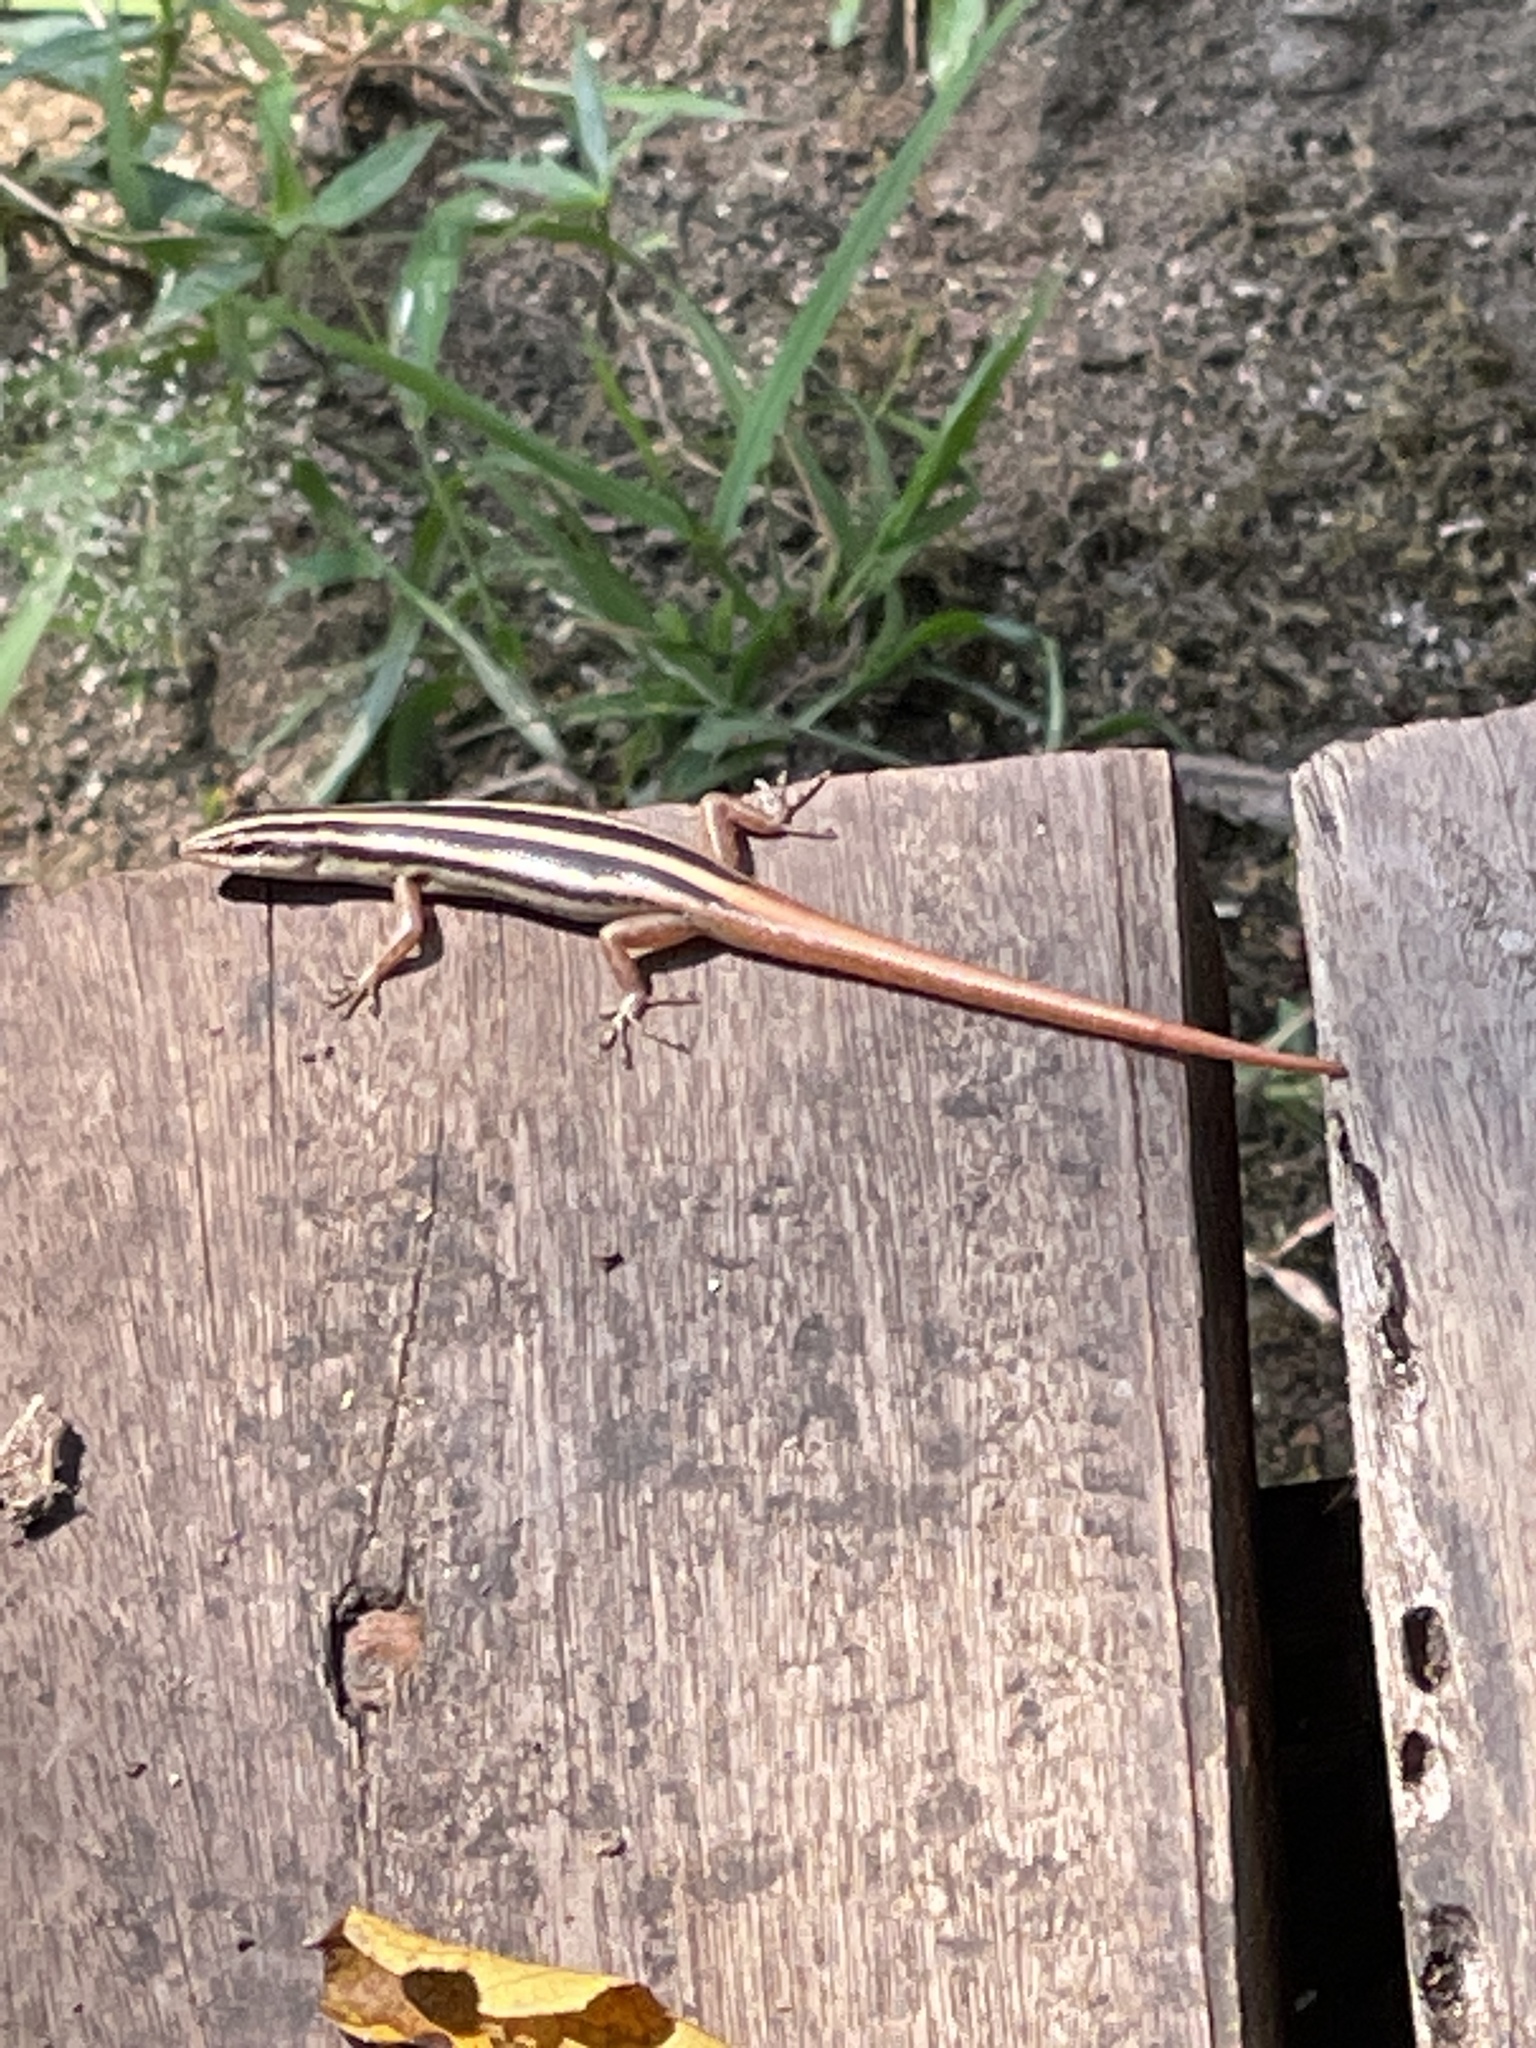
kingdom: Animalia
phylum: Chordata
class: Squamata
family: Scincidae
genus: Lipinia
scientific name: Lipinia microcerca
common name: Banded lipinia
